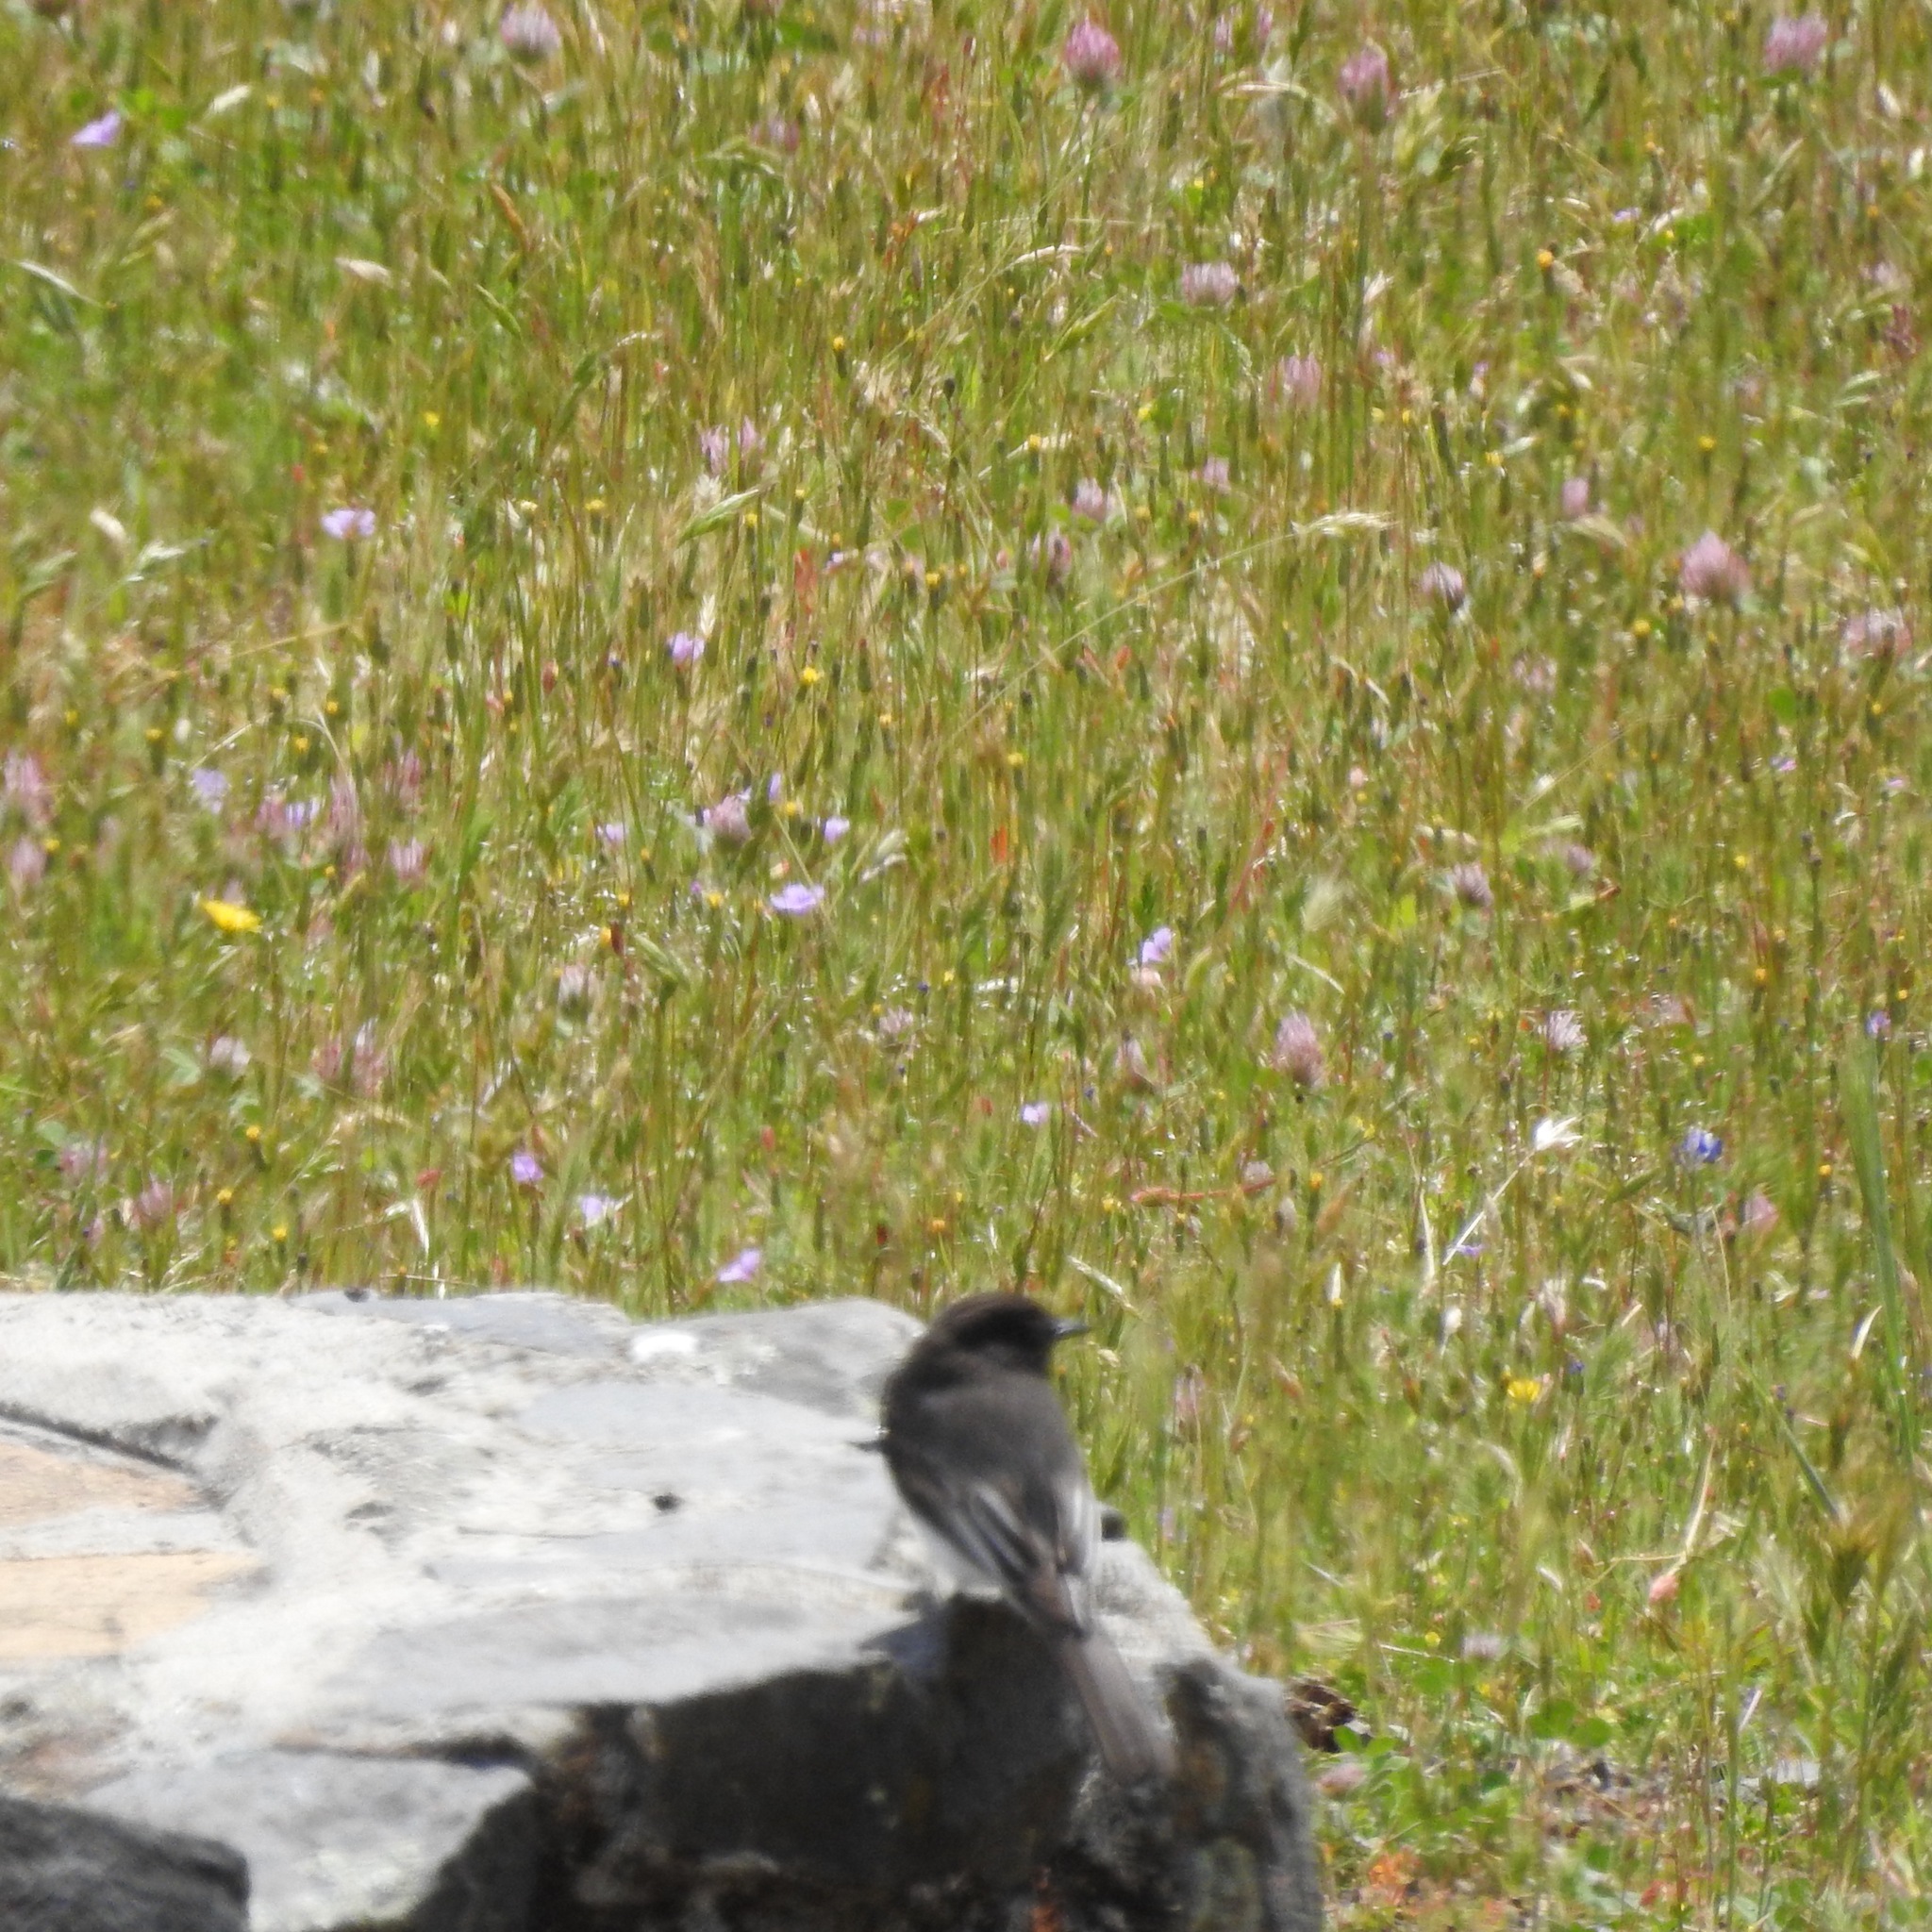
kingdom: Animalia
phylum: Chordata
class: Aves
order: Passeriformes
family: Tyrannidae
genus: Sayornis
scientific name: Sayornis nigricans
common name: Black phoebe
